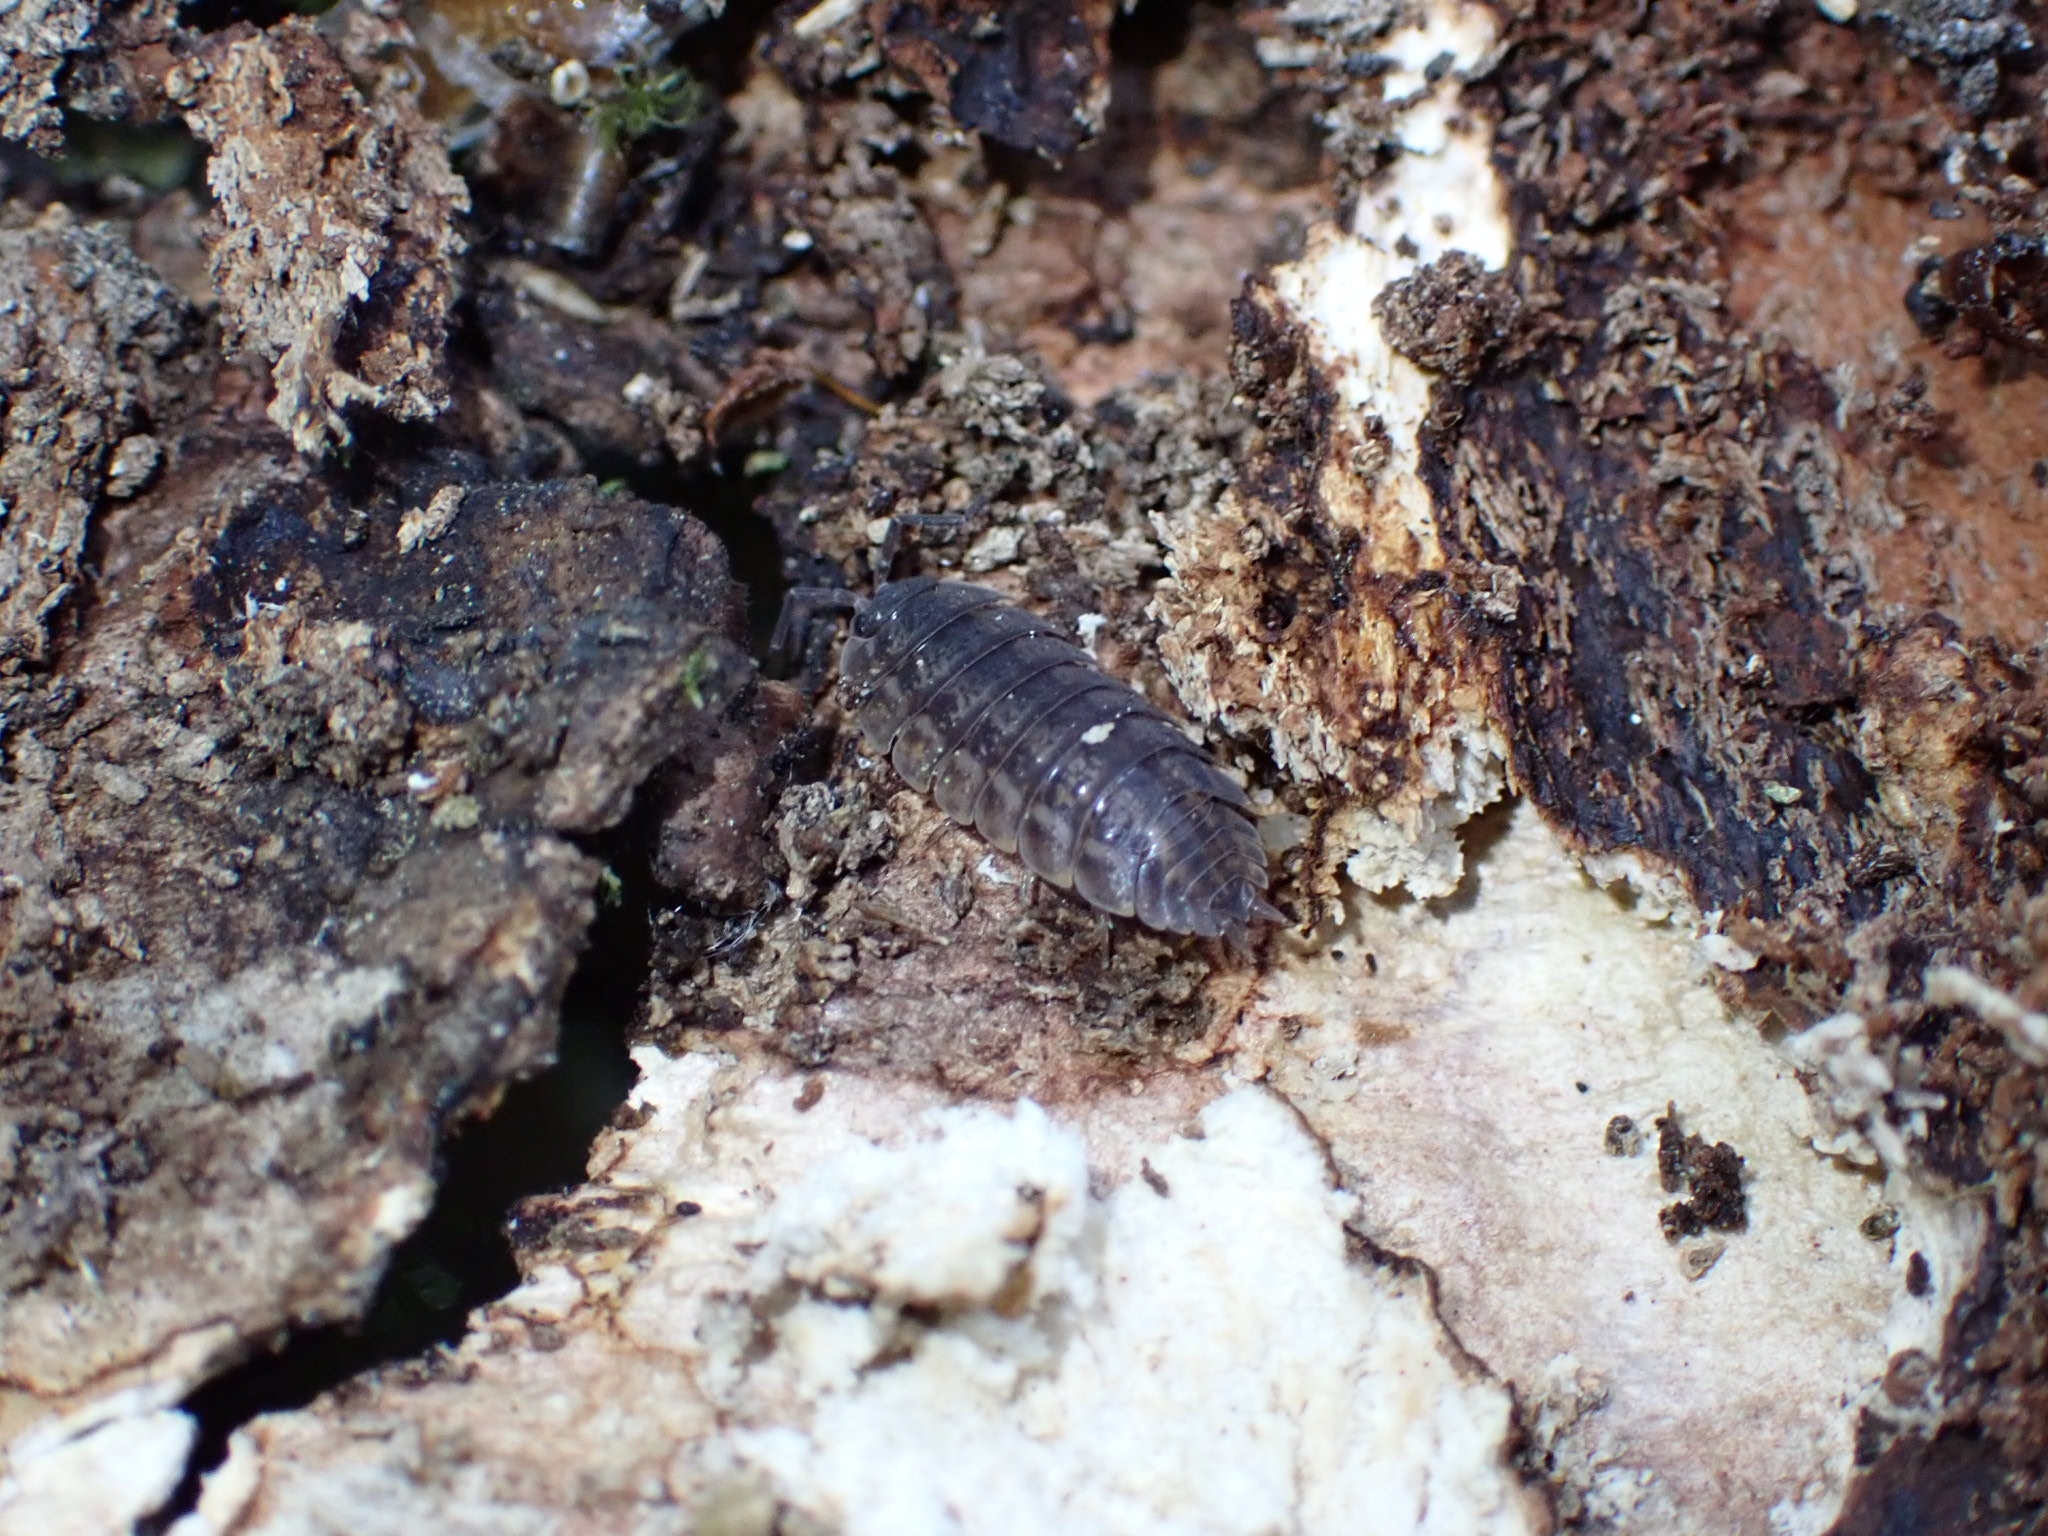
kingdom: Animalia
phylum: Arthropoda
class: Malacostraca
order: Isopoda
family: Trachelipodidae
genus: Trachelipus
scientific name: Trachelipus rathkii
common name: Isopod
